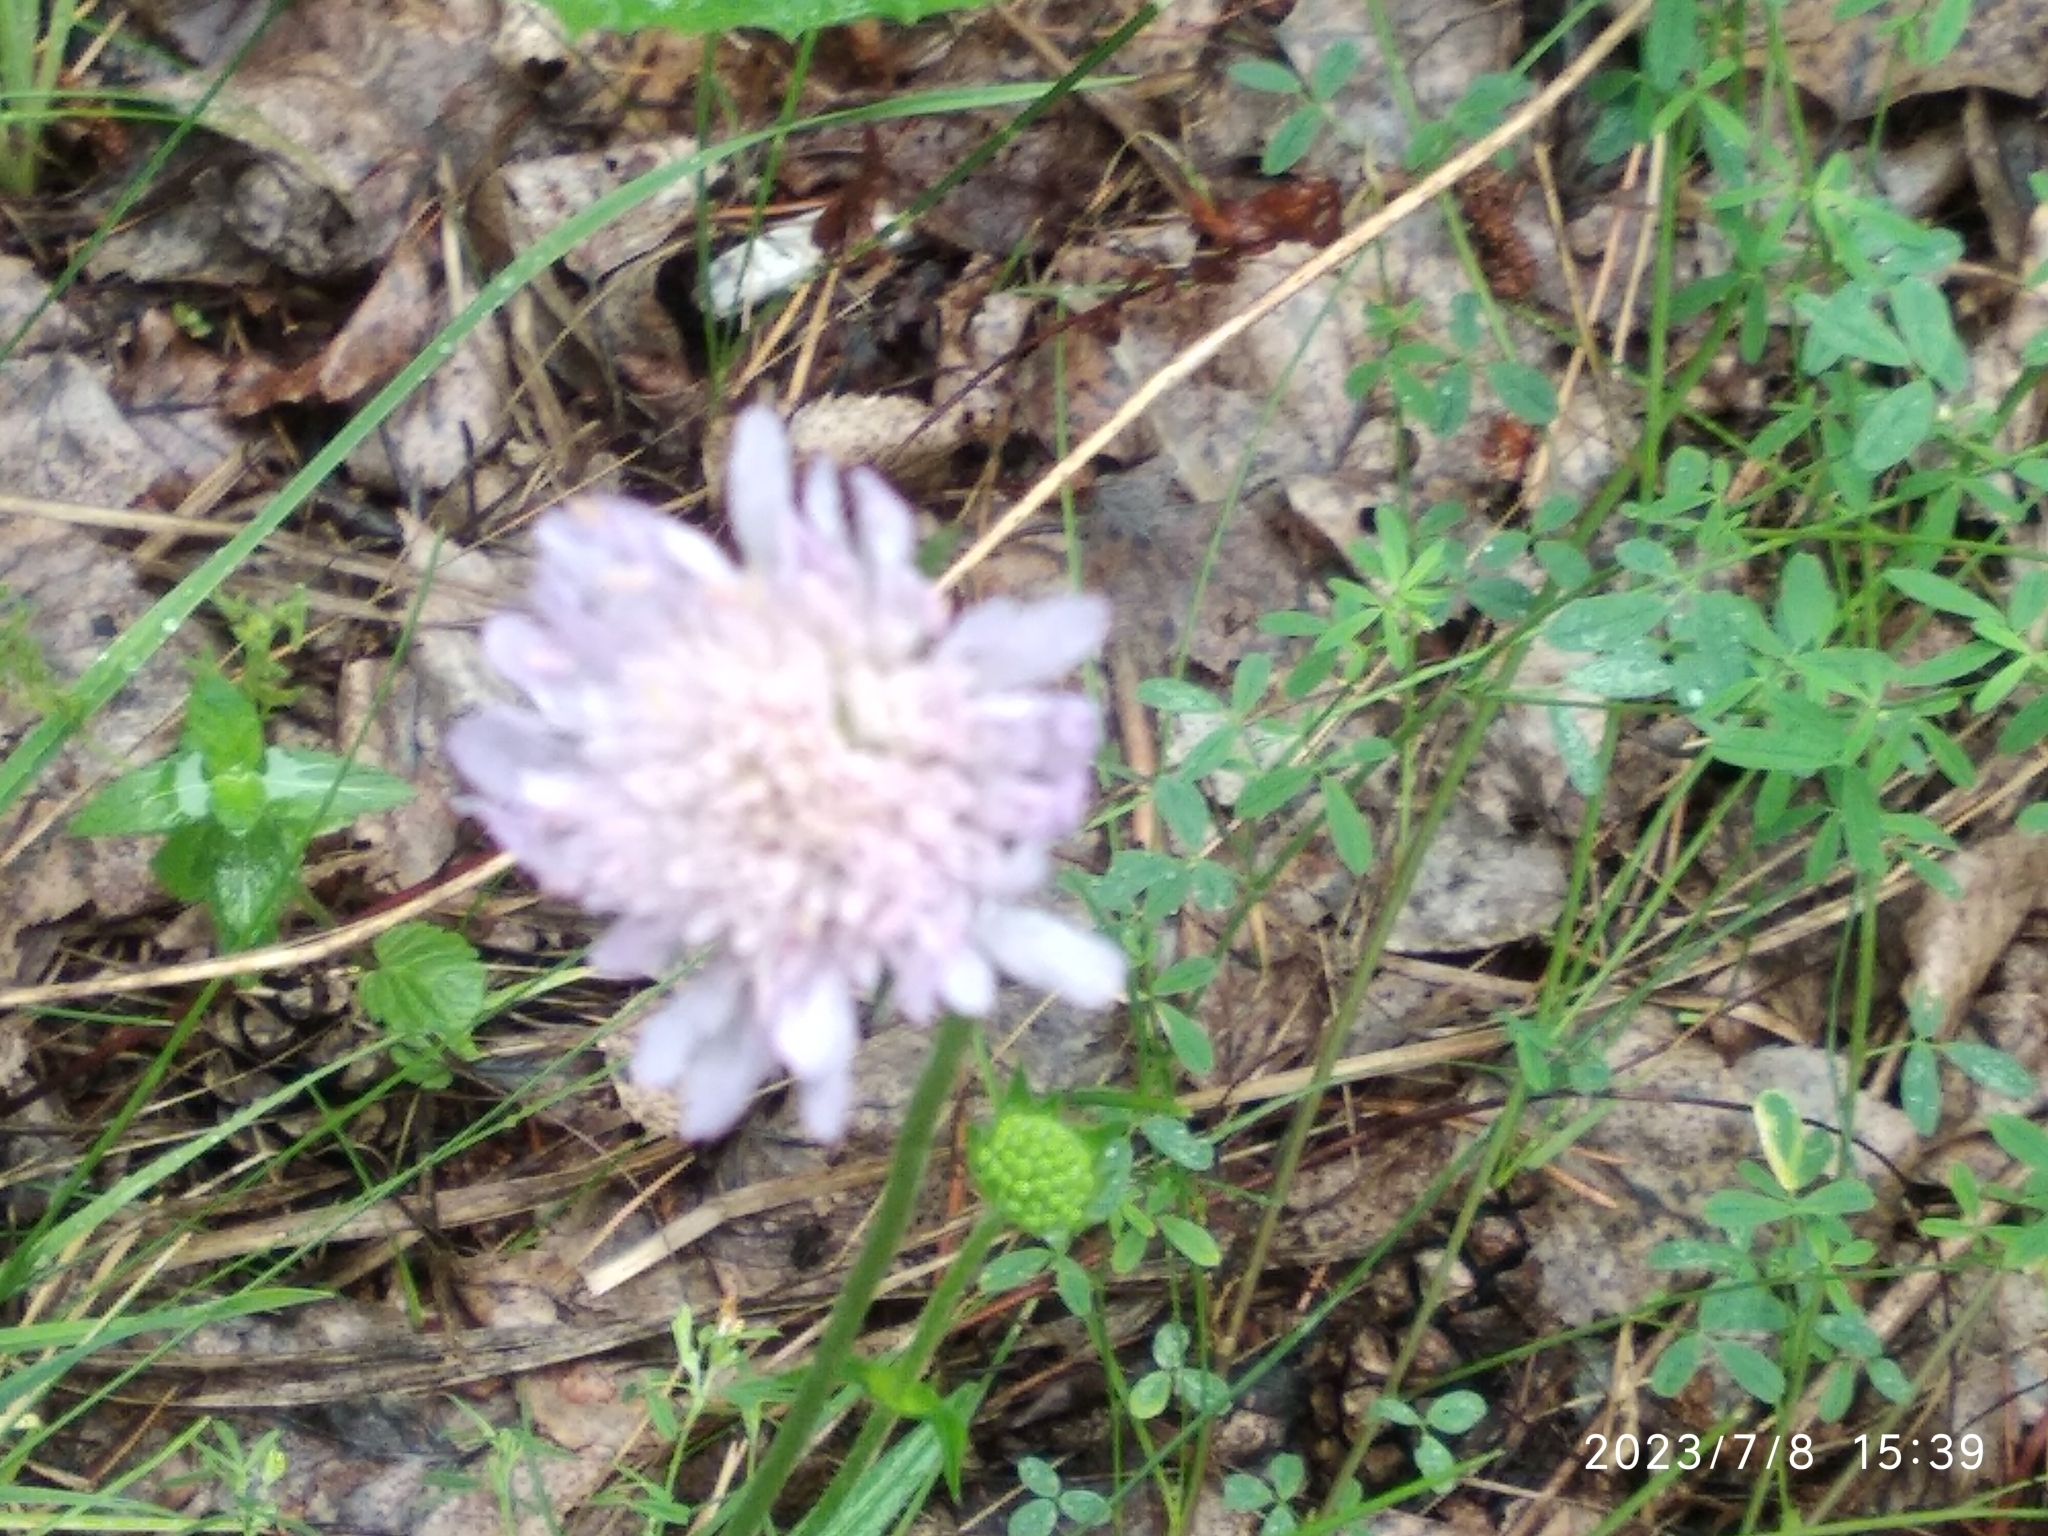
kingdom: Plantae
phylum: Tracheophyta
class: Magnoliopsida
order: Dipsacales
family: Caprifoliaceae
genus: Knautia
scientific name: Knautia arvensis
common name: Field scabiosa
